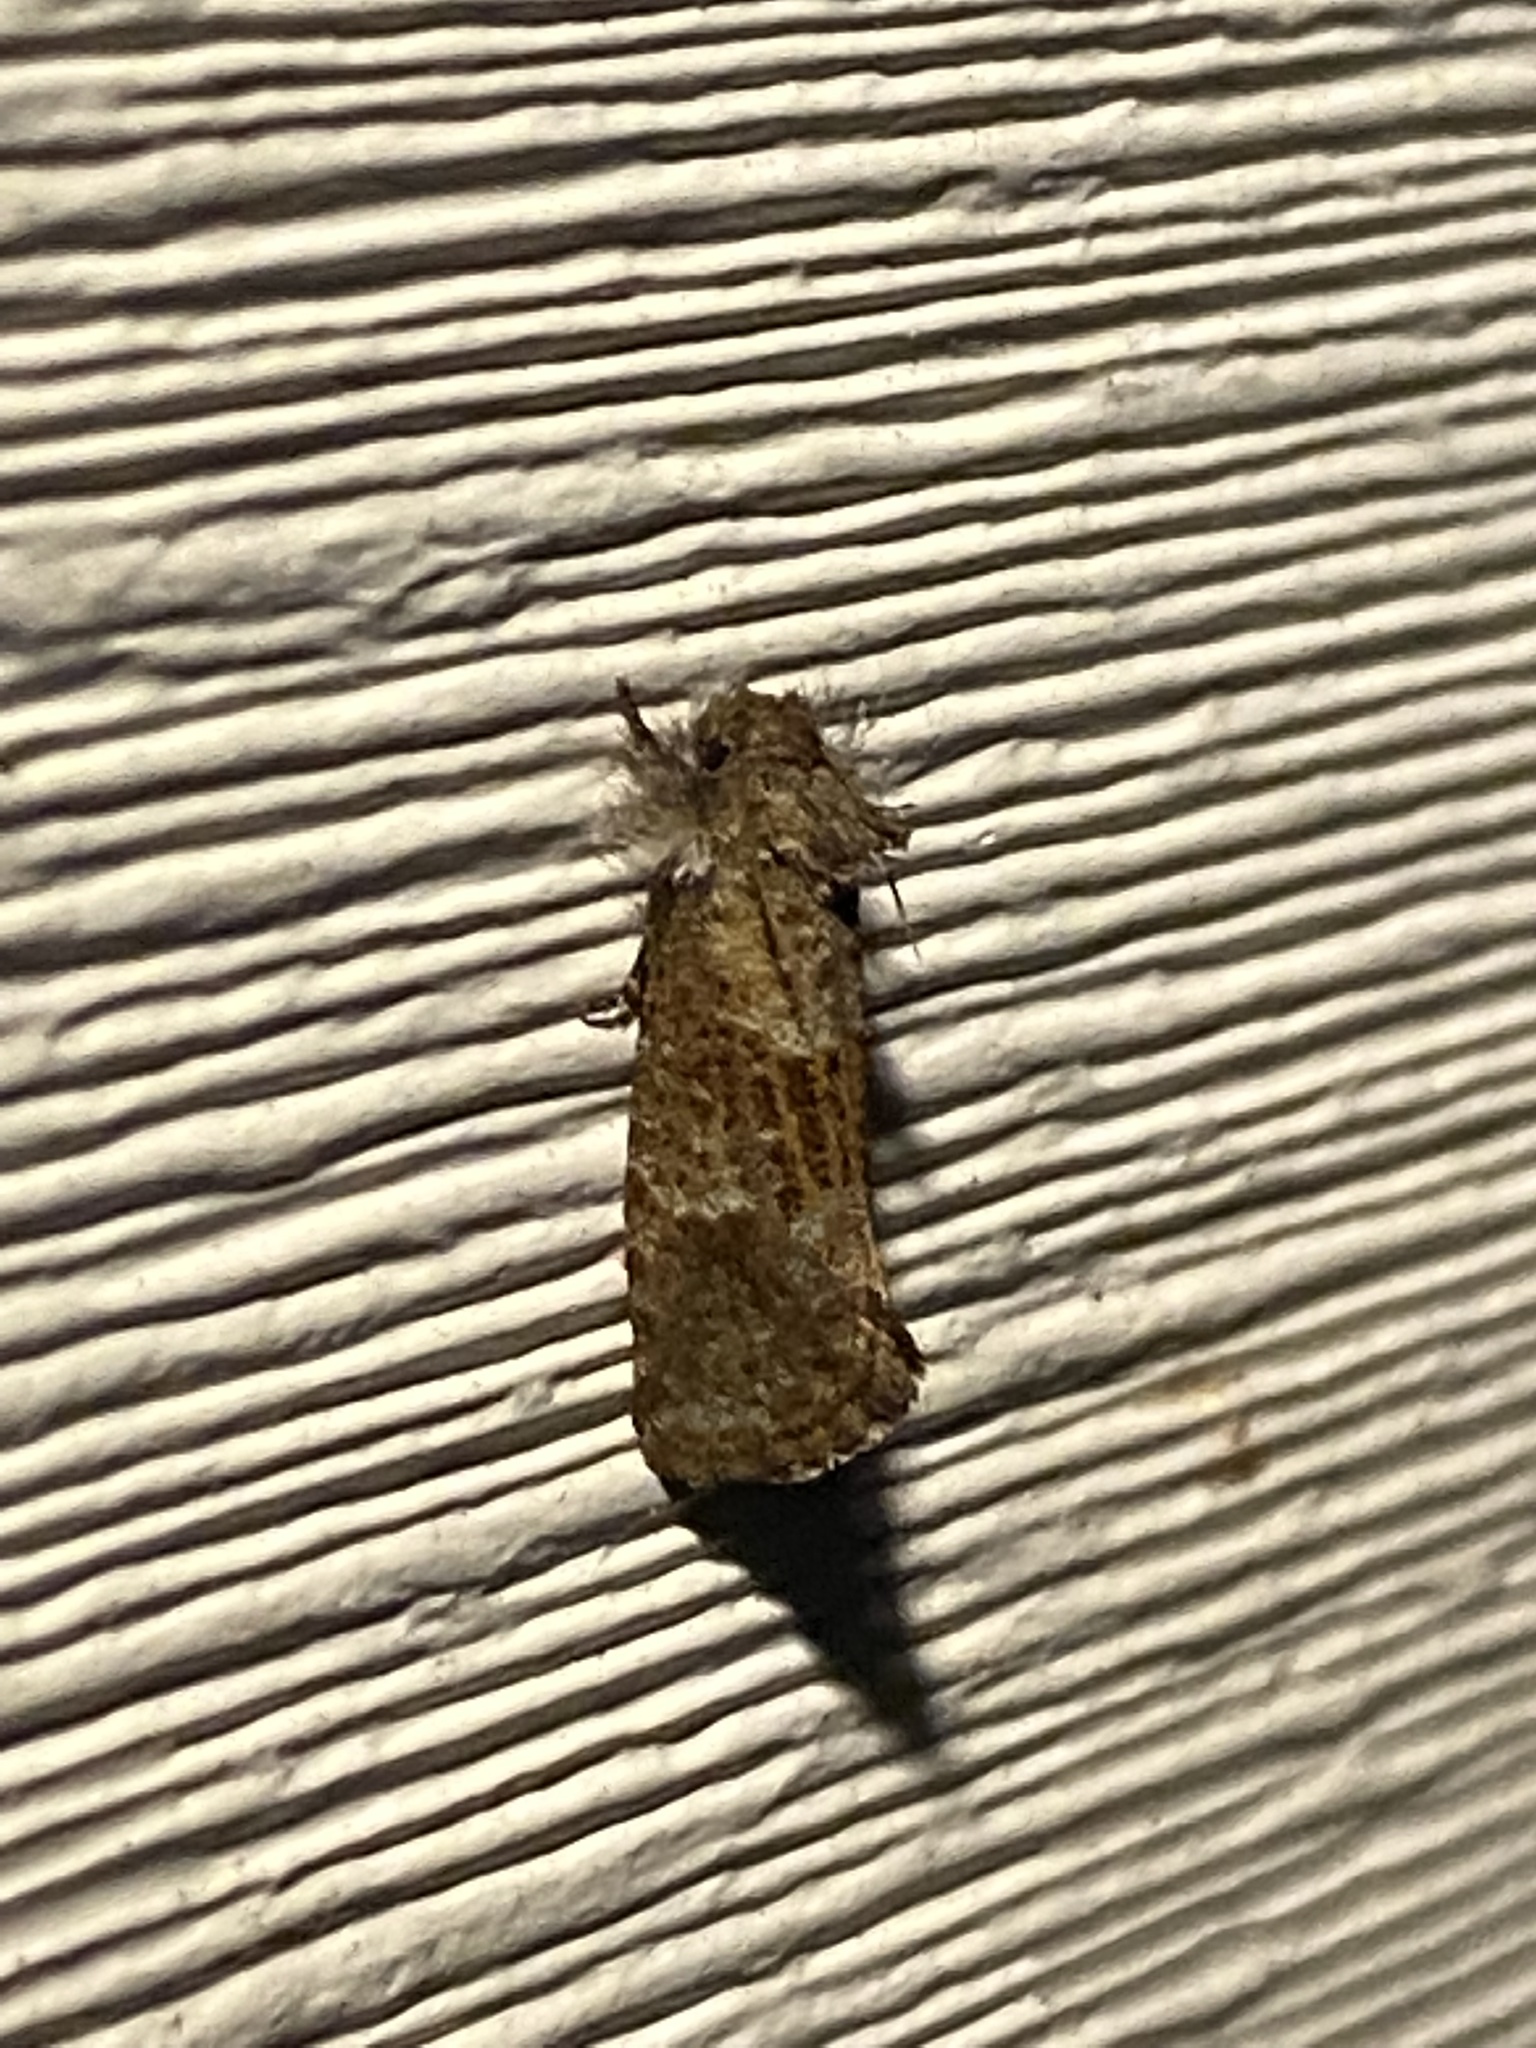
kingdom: Animalia
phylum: Arthropoda
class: Insecta
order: Lepidoptera
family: Tineidae
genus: Acrolophus
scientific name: Acrolophus panamae
